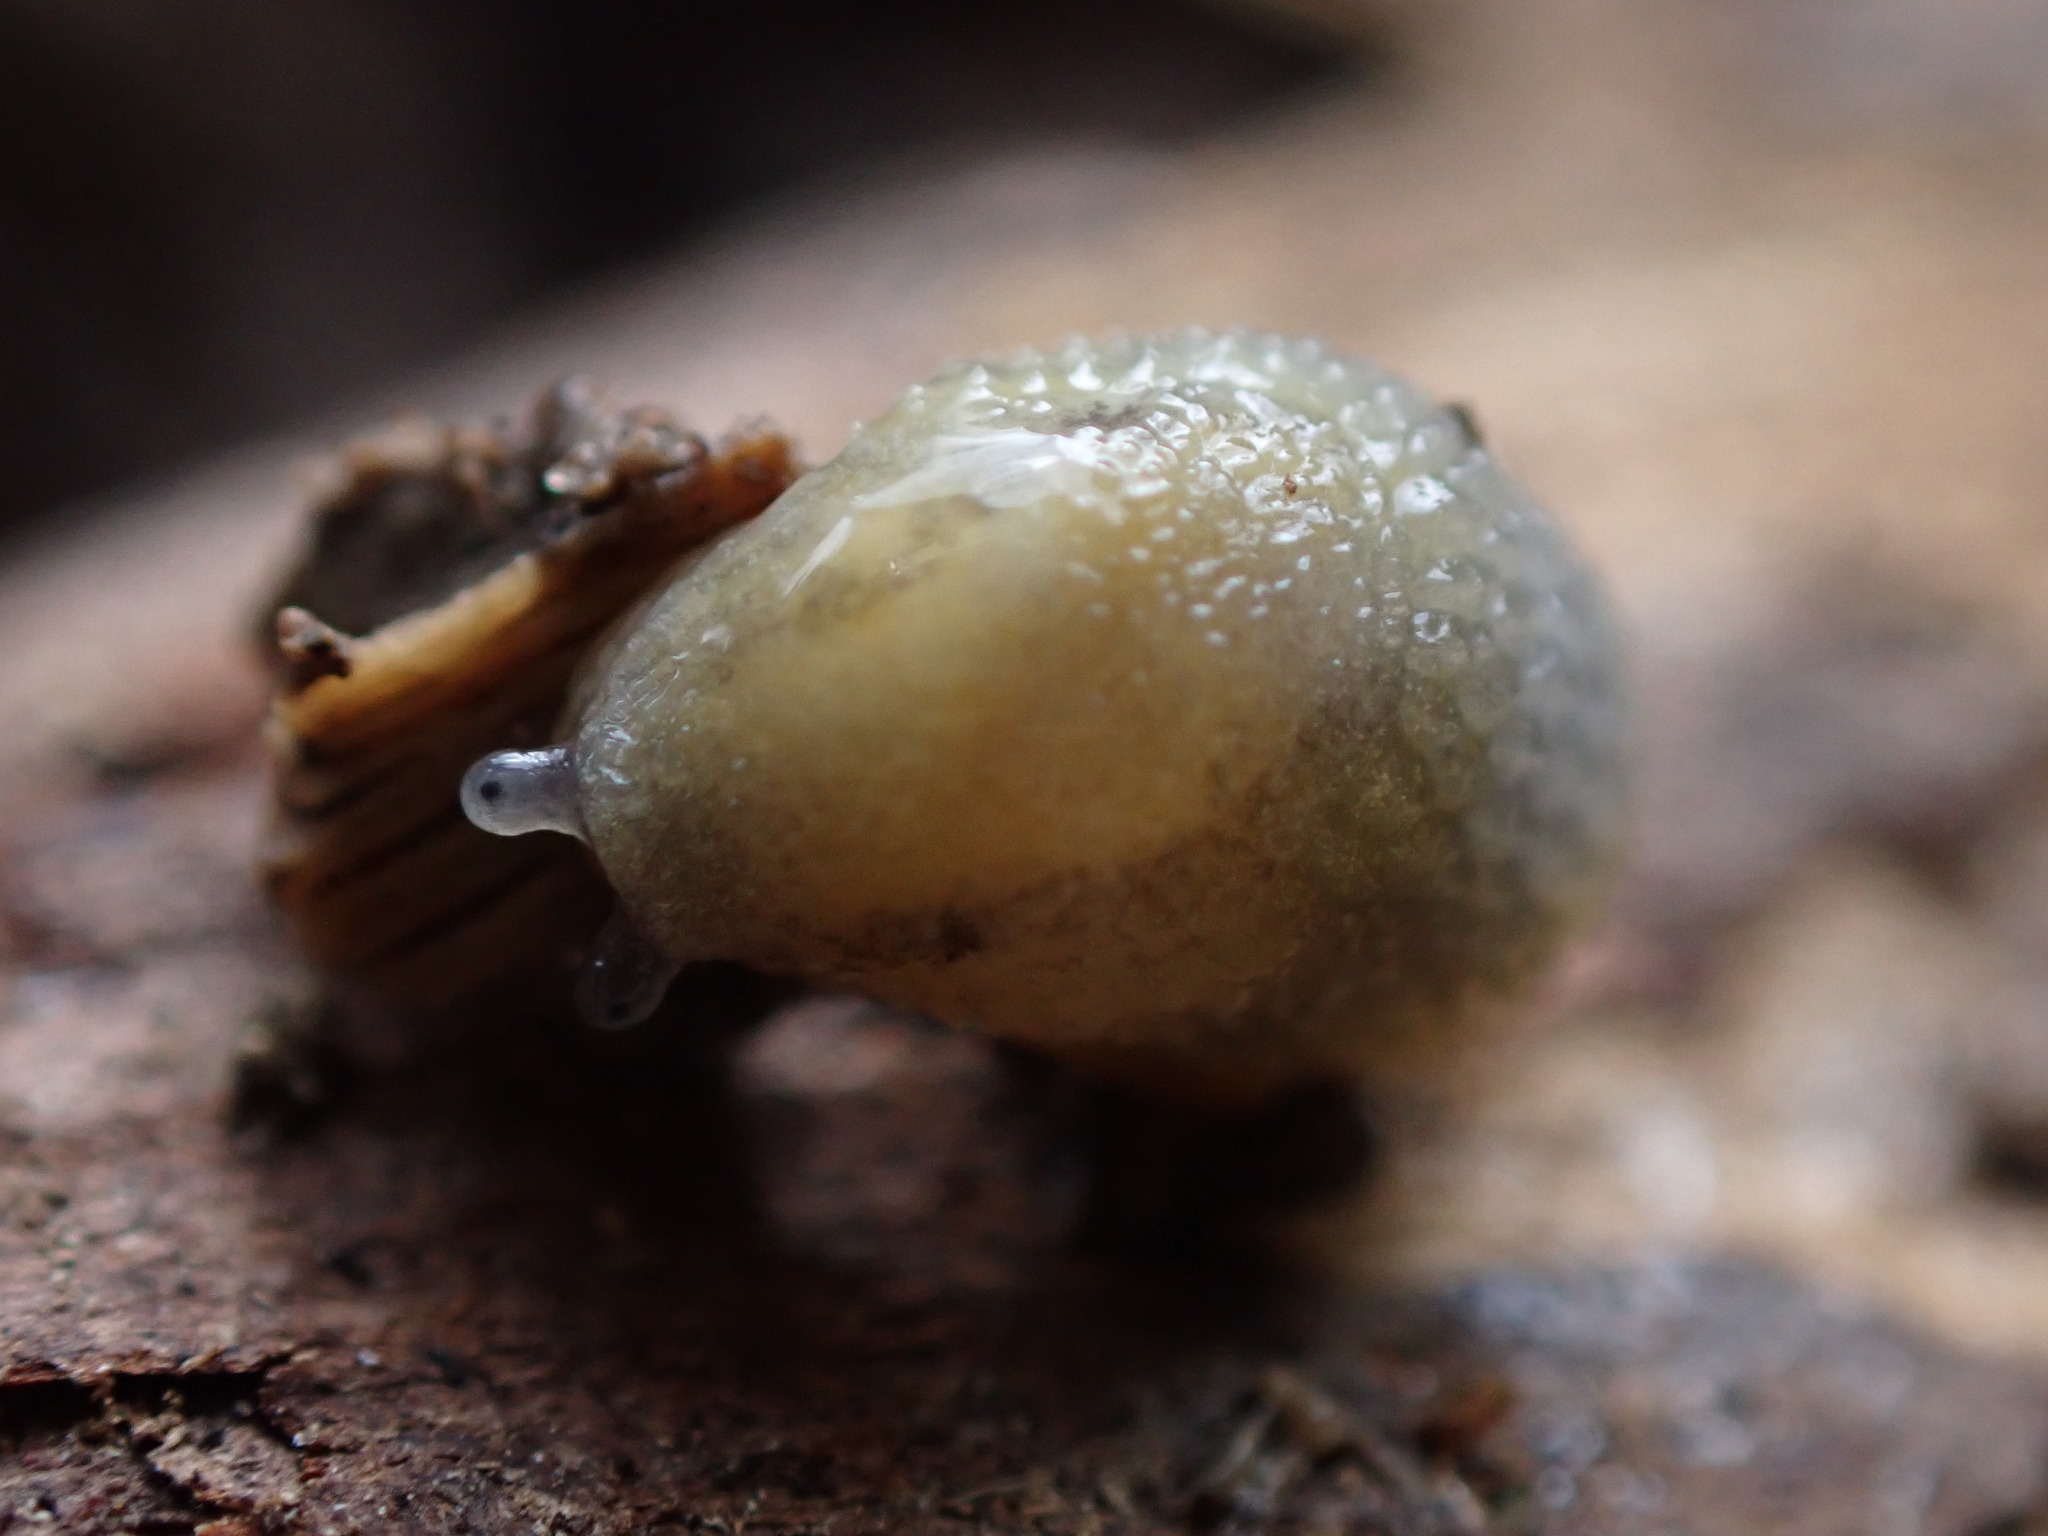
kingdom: Animalia
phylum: Mollusca
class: Gastropoda
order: Stylommatophora
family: Arionidae
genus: Arion
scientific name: Arion intermedius
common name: Hedgehog slug
